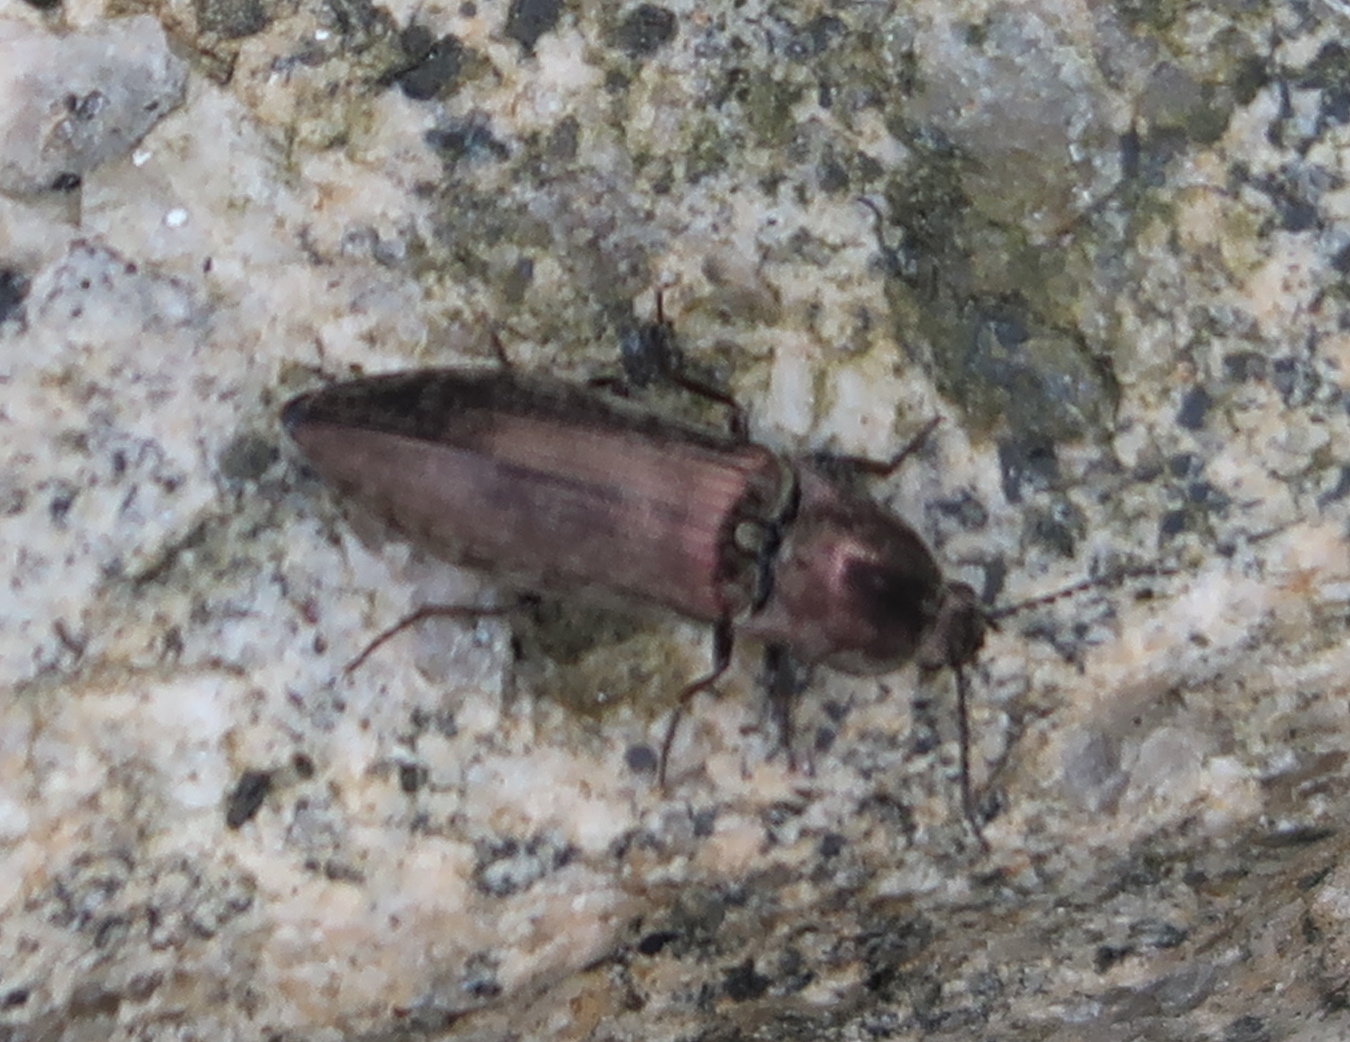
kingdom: Animalia
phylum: Arthropoda
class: Insecta
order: Coleoptera
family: Elateridae
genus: Actenicerus
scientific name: Actenicerus sjaelandicus
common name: Marsh click beetle
